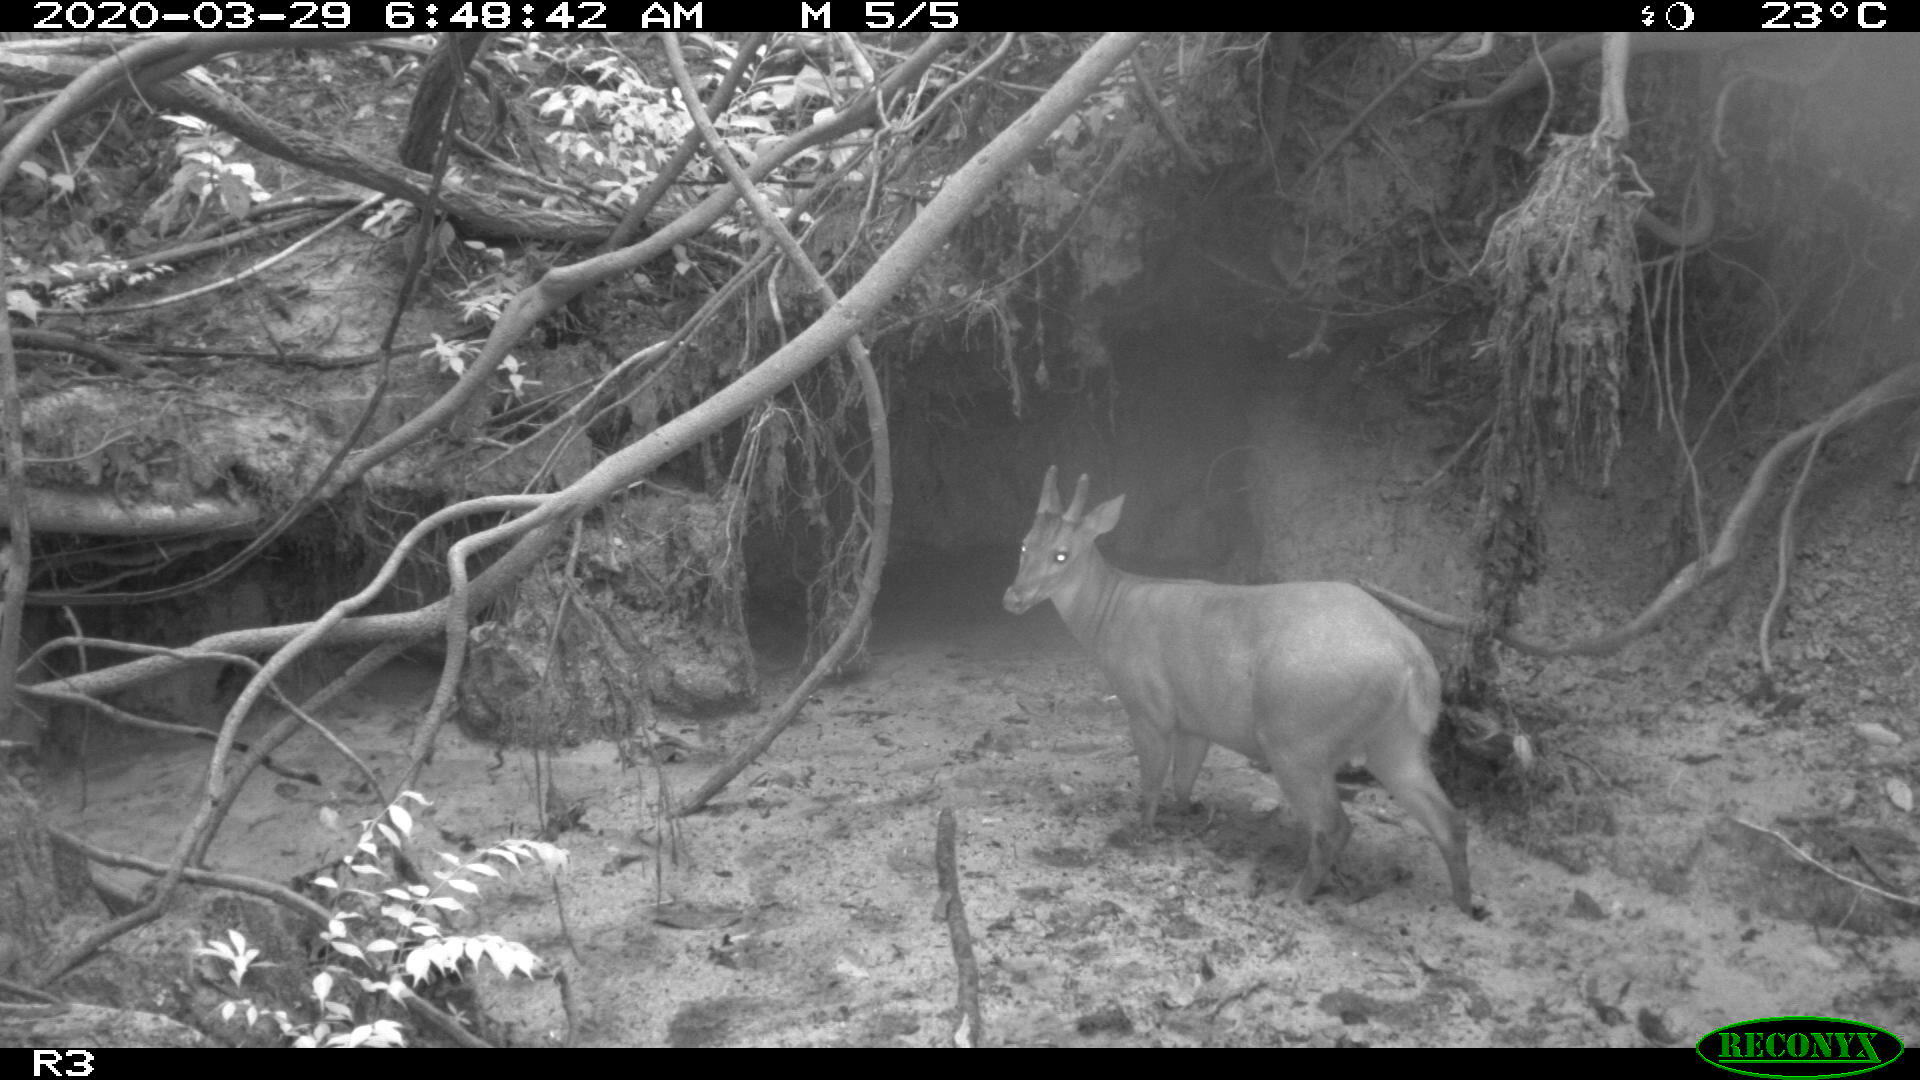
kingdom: Animalia
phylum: Chordata
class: Mammalia
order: Artiodactyla
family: Cervidae
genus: Mazama
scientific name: Mazama americana
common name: Red brocket
